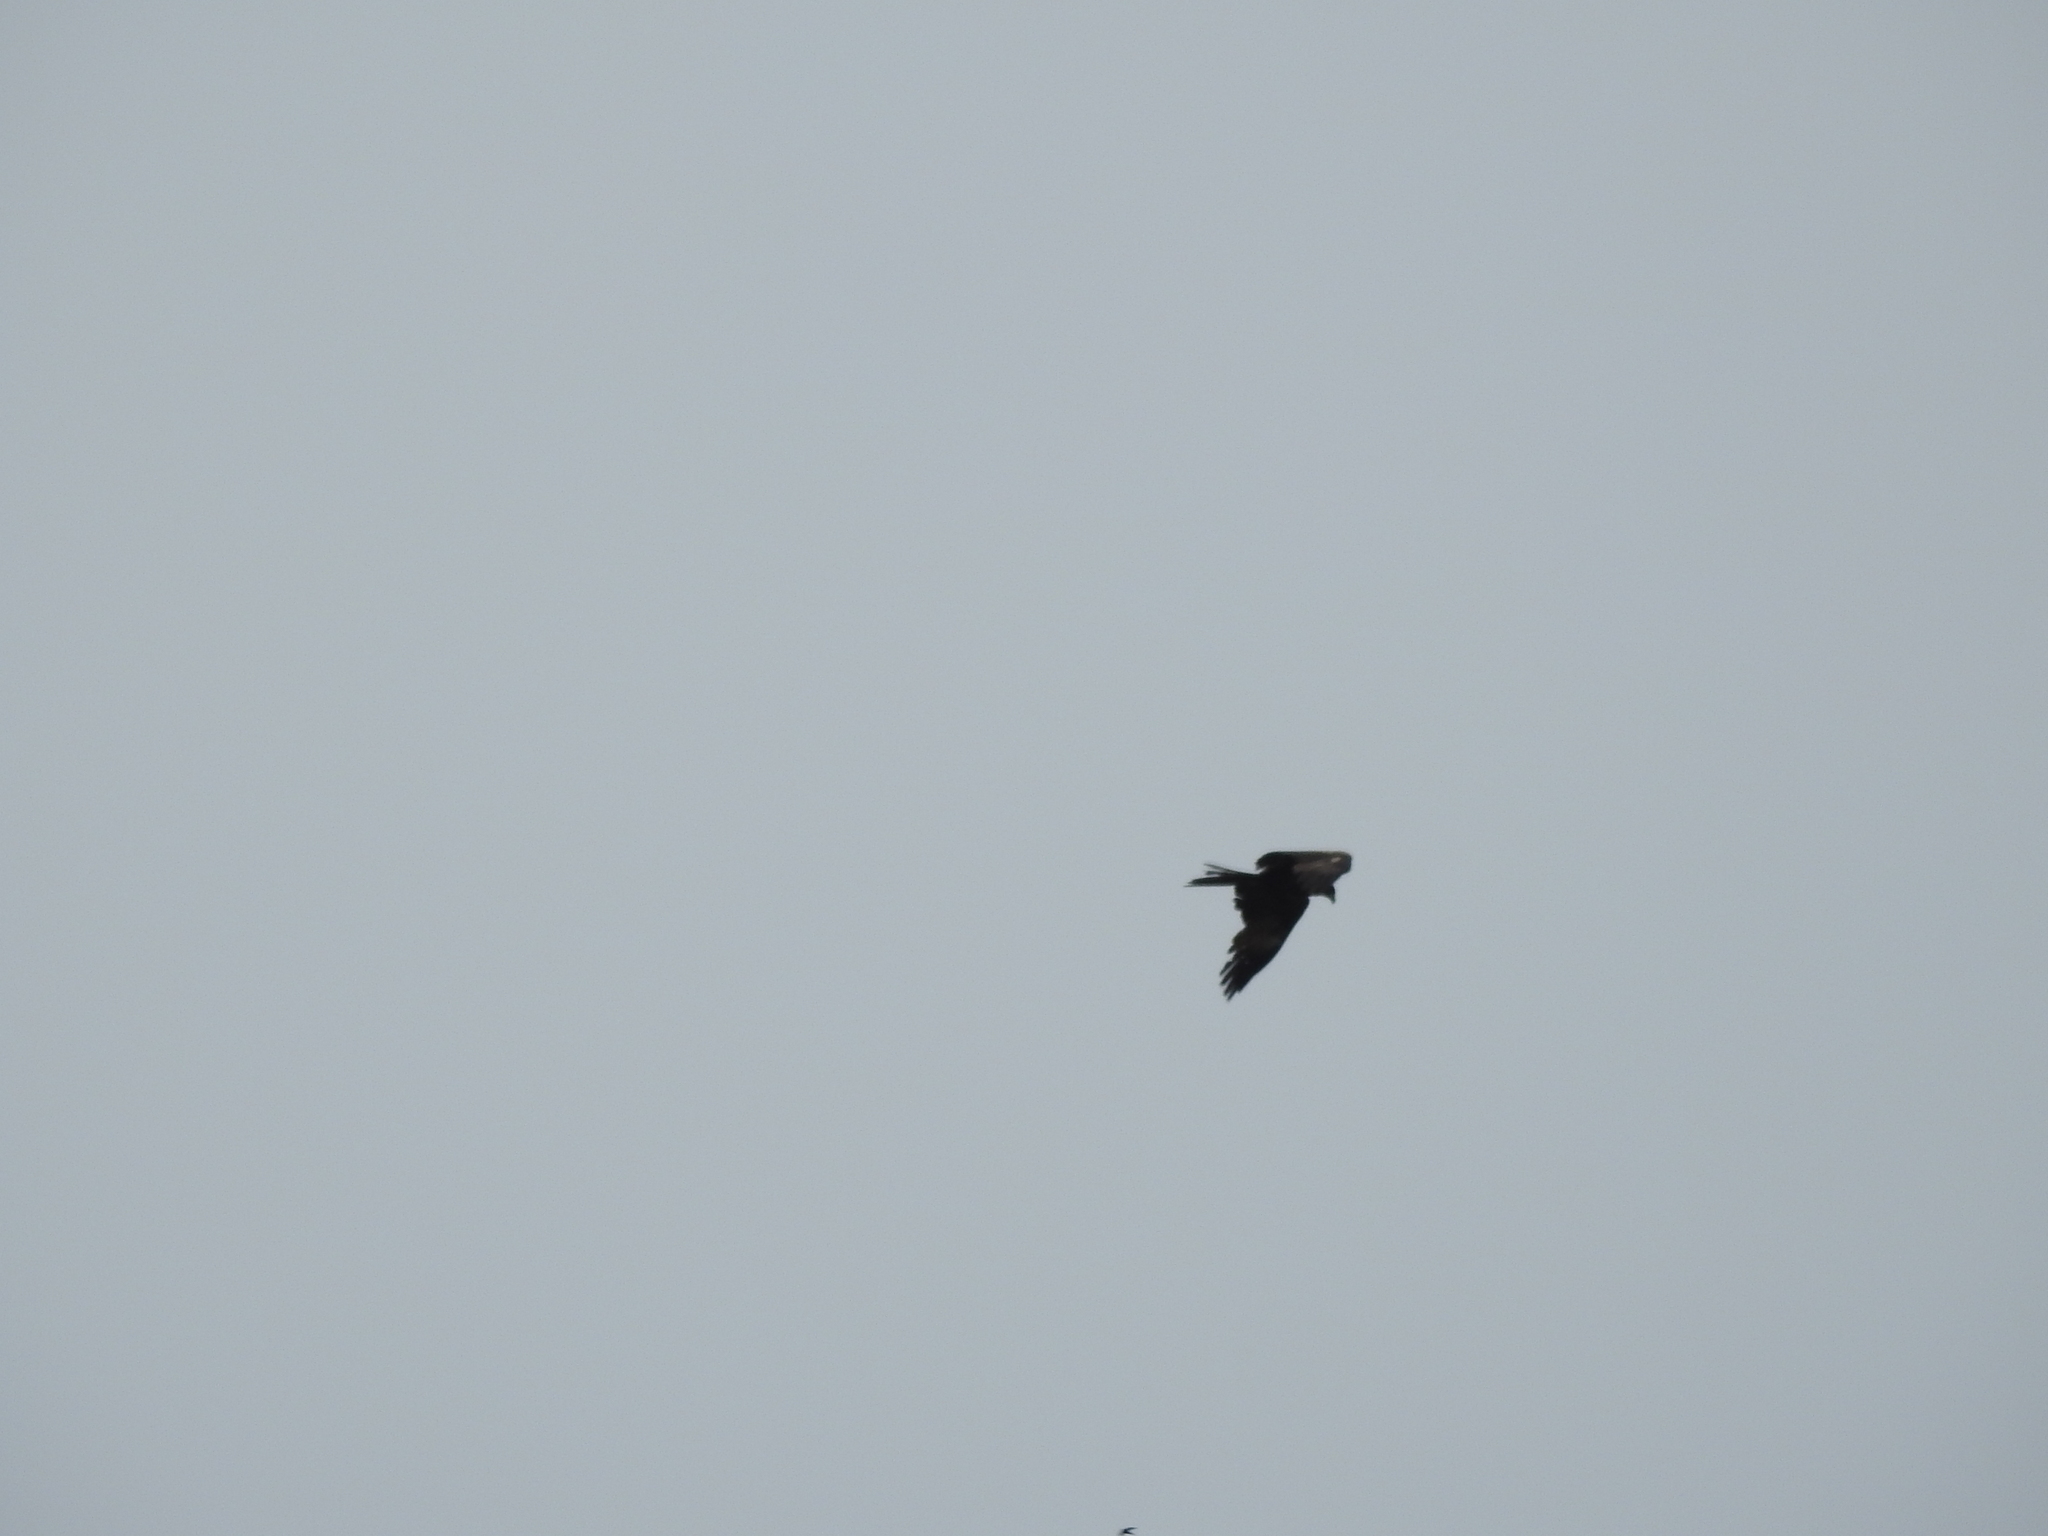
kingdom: Animalia
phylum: Chordata
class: Aves
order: Accipitriformes
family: Accipitridae
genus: Milvus
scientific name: Milvus migrans
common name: Black kite
